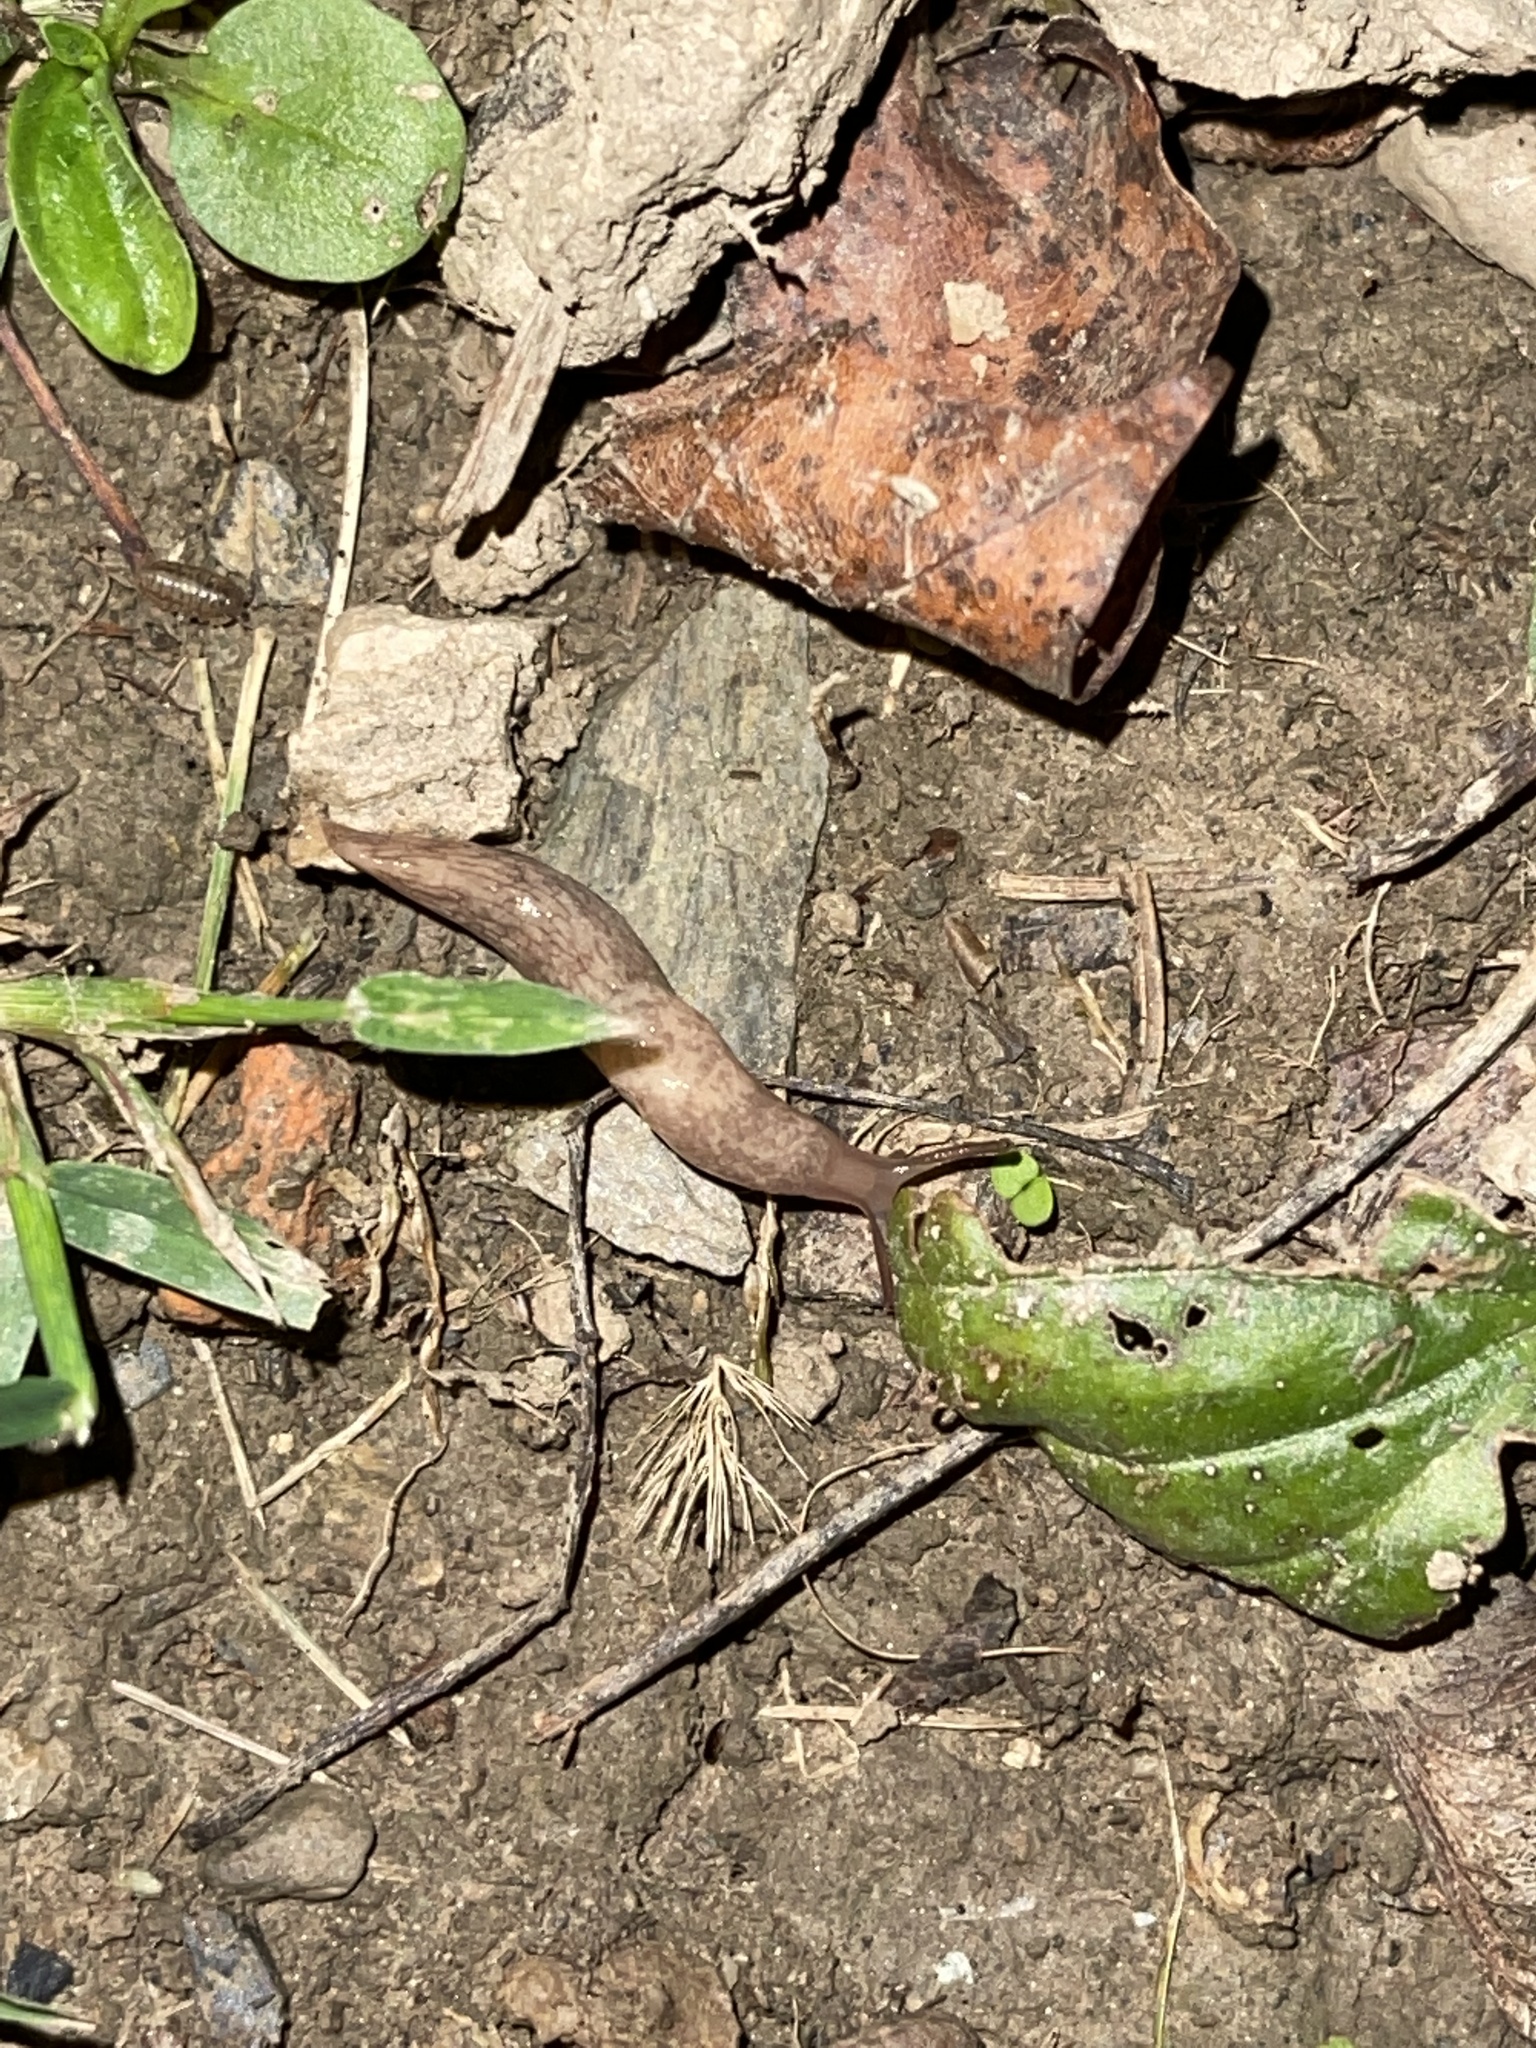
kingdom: Animalia
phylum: Mollusca
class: Gastropoda
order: Stylommatophora
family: Agriolimacidae
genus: Deroceras
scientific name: Deroceras reticulatum
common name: Gray field slug
